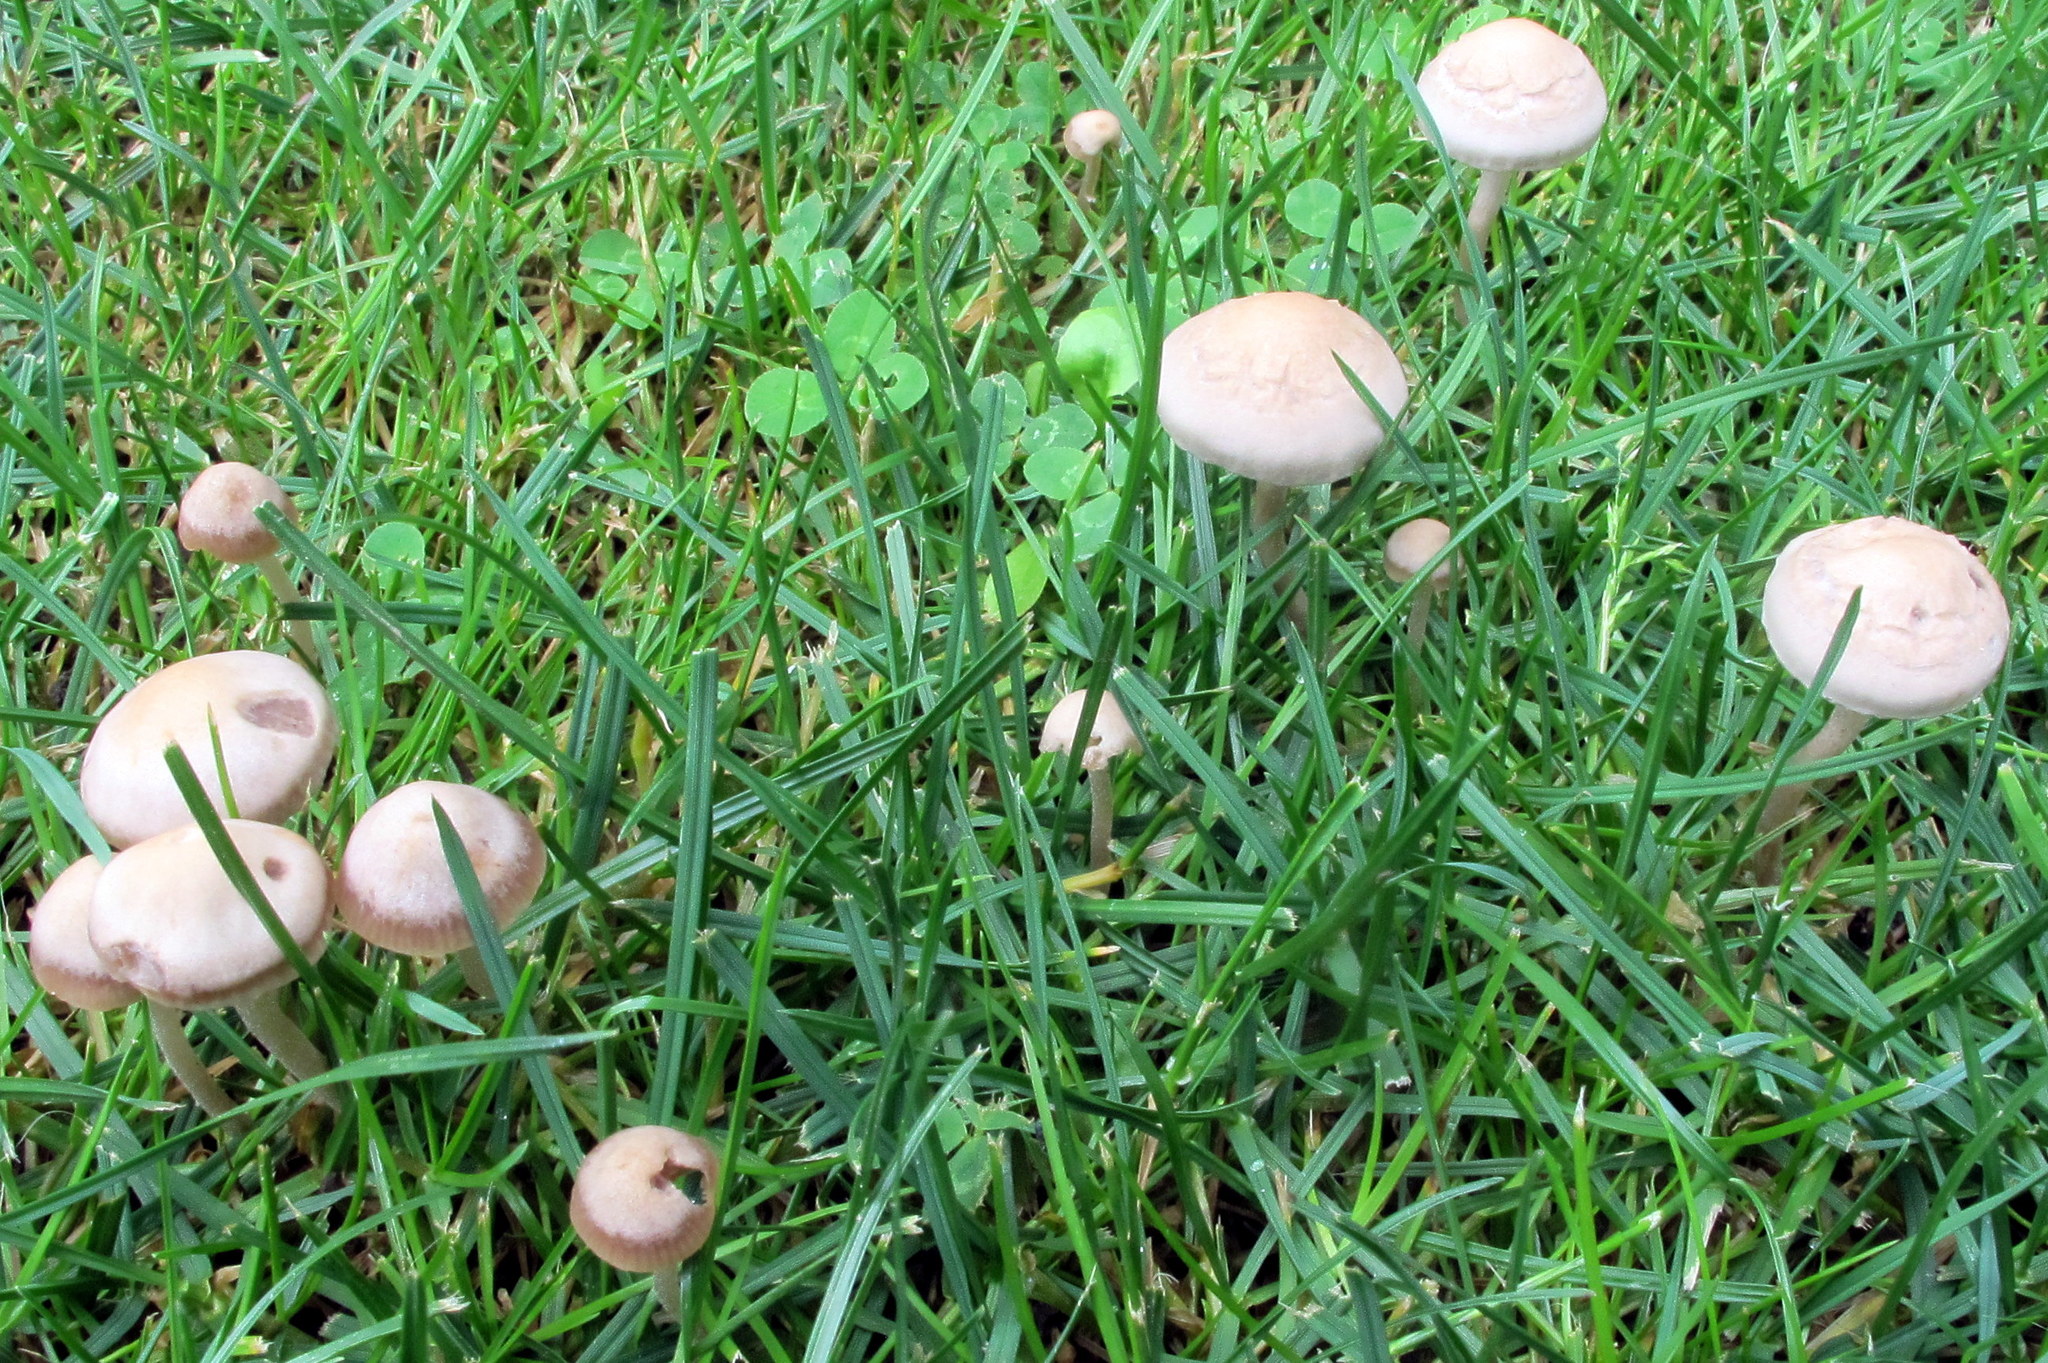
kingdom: Fungi
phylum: Basidiomycota
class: Agaricomycetes
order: Agaricales
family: Bolbitiaceae
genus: Panaeolina
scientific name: Panaeolina foenisecii
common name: Brown hay cap
